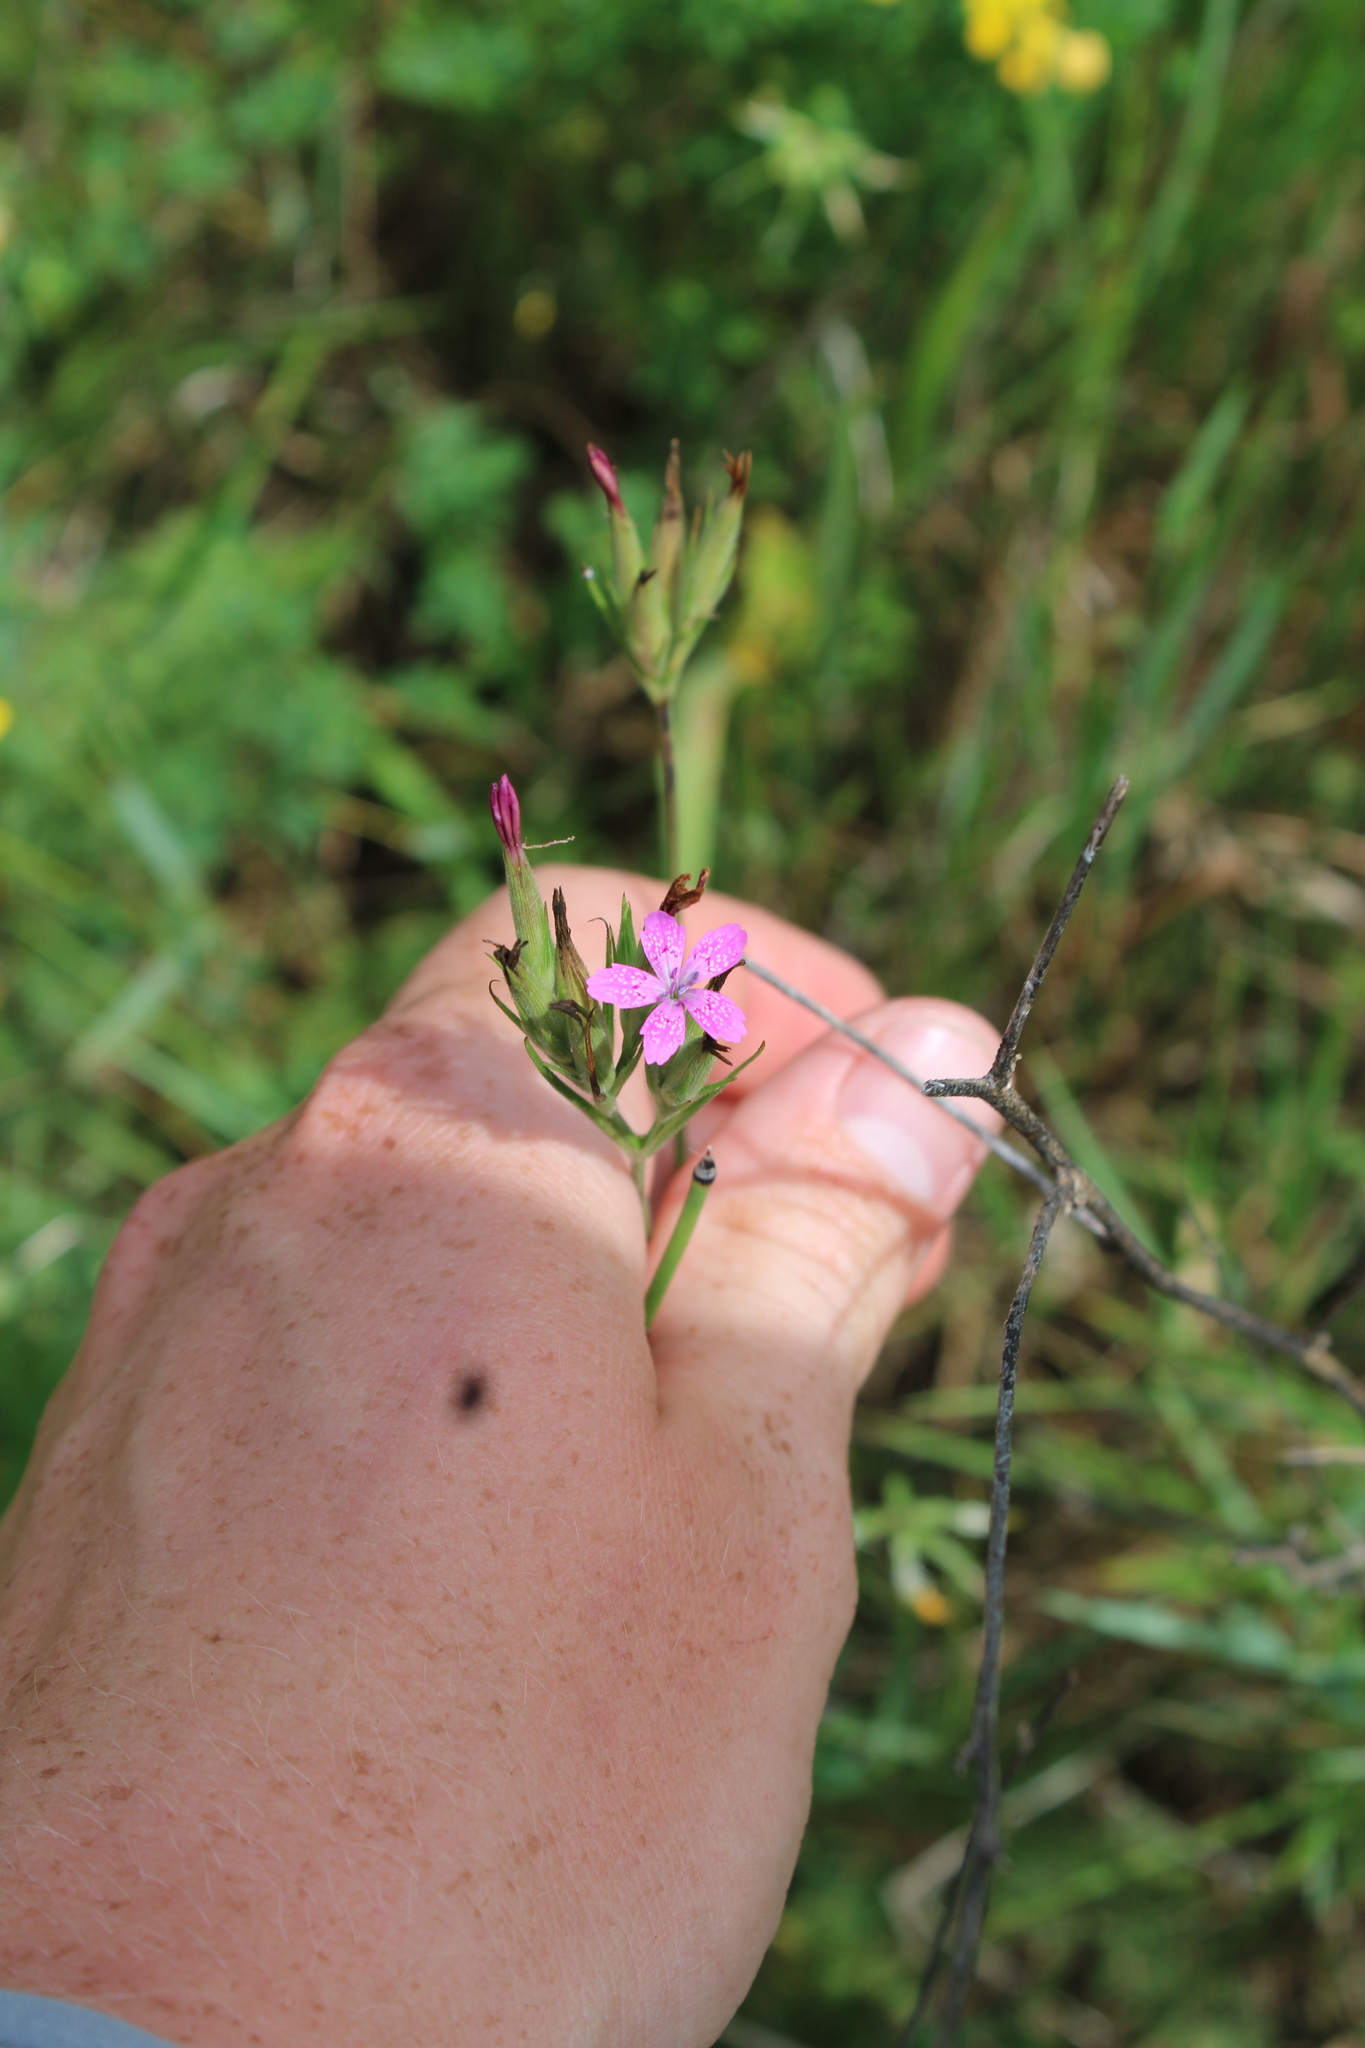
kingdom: Plantae
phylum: Tracheophyta
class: Magnoliopsida
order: Caryophyllales
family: Caryophyllaceae
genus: Dianthus
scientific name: Dianthus armeria
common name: Deptford pink
